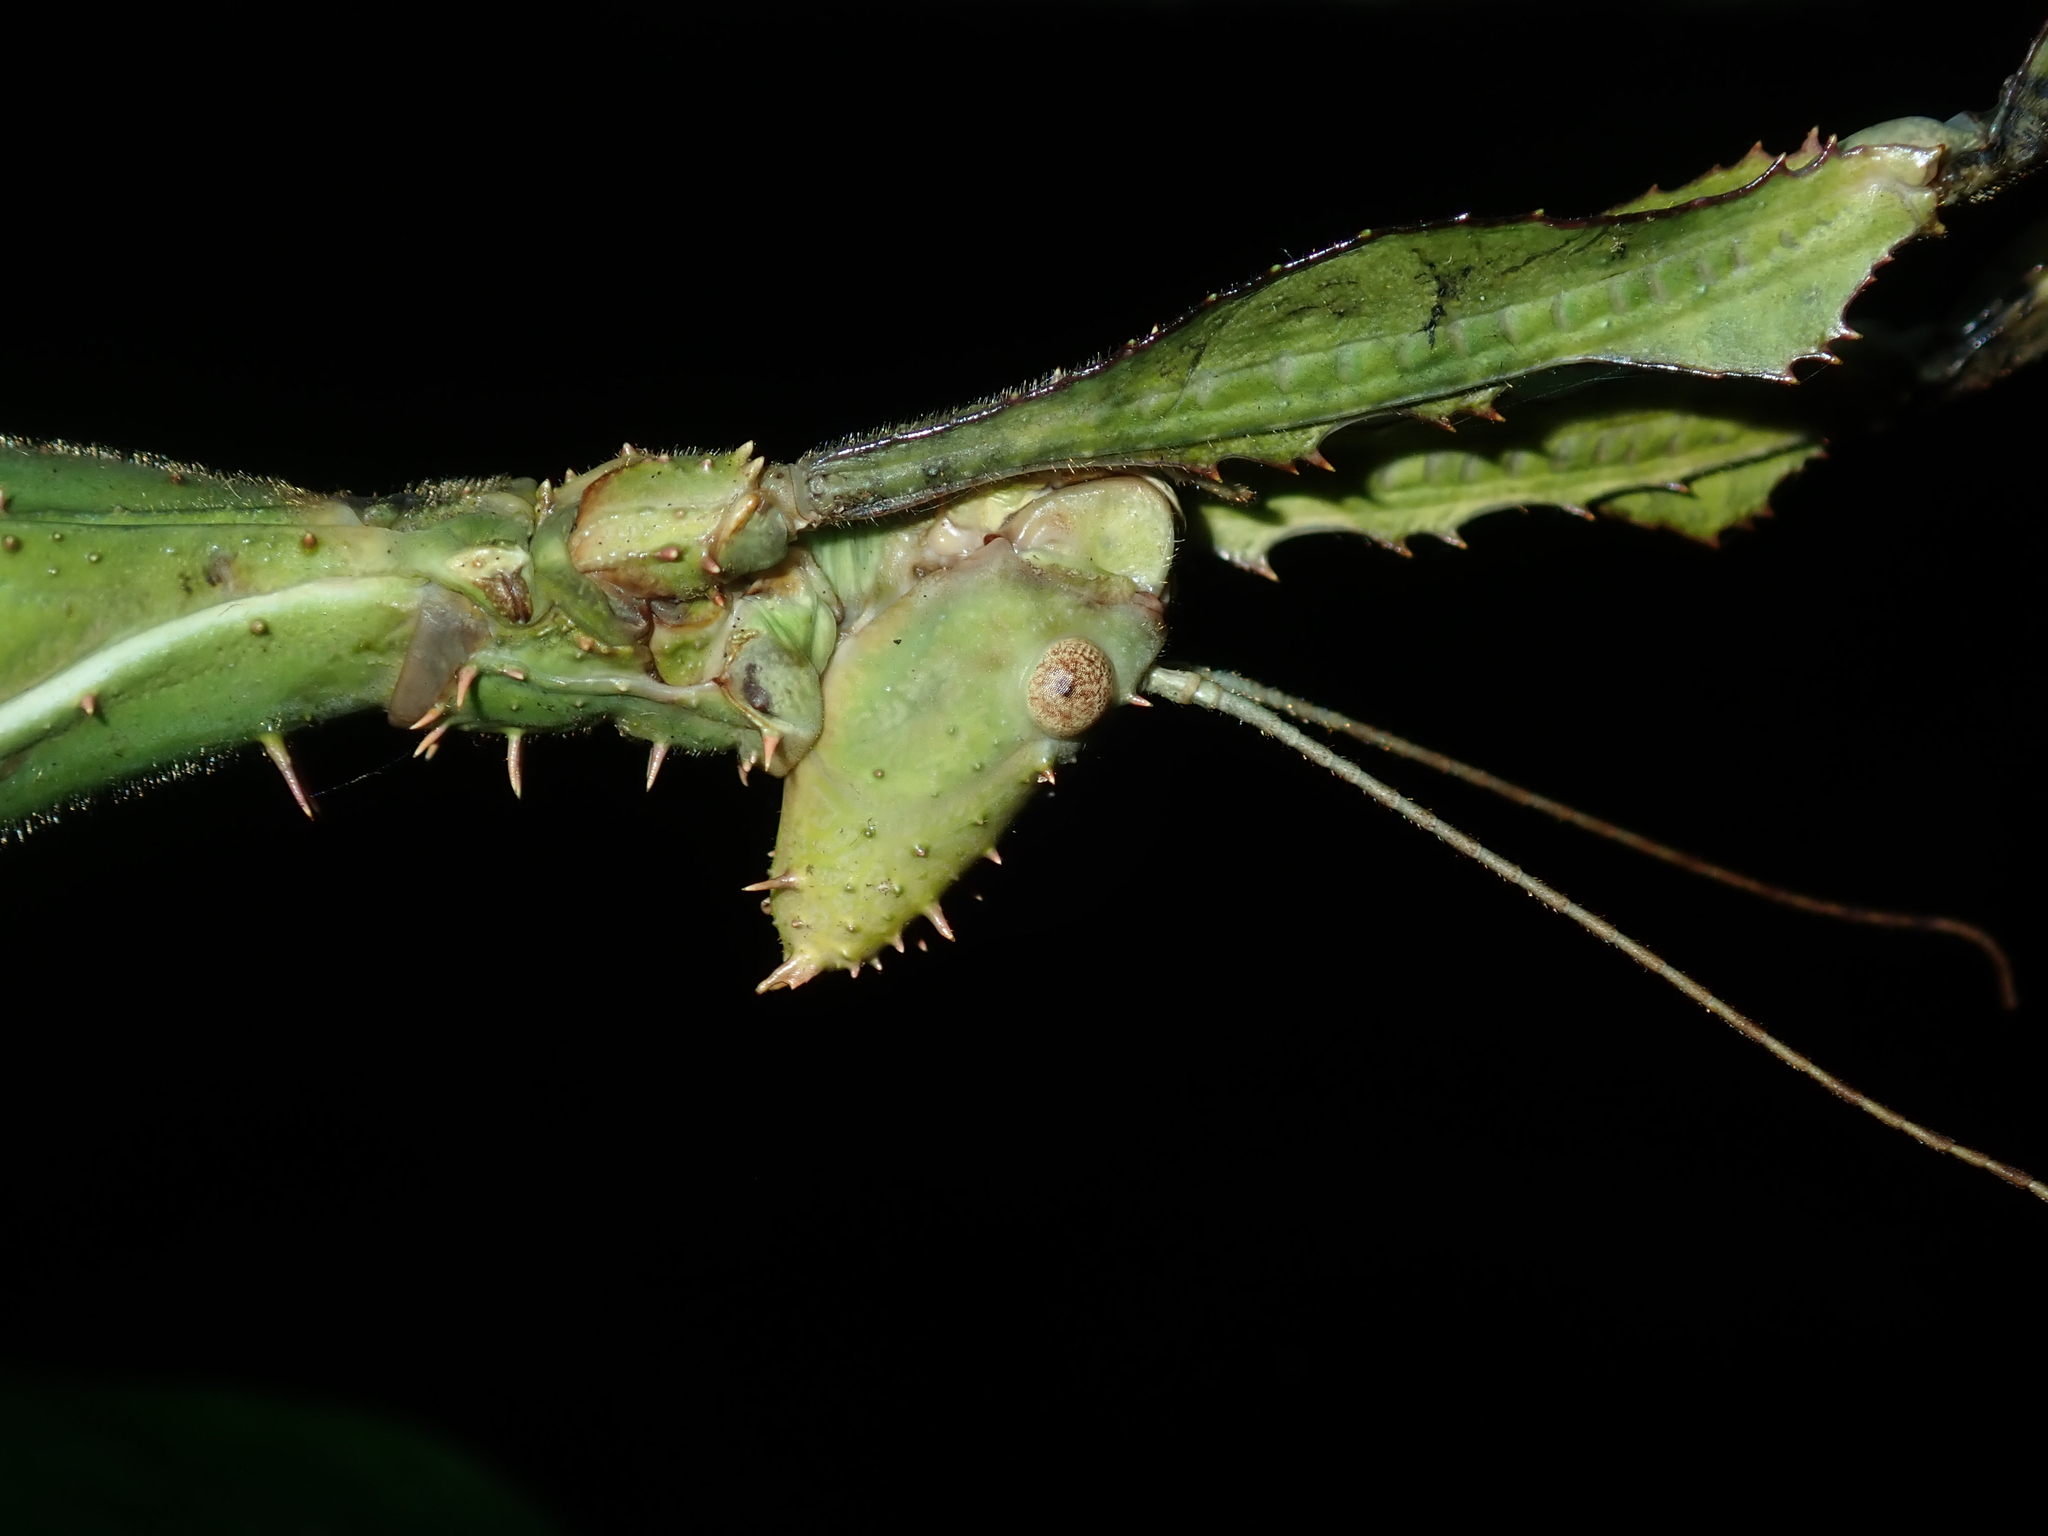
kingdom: Animalia
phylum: Arthropoda
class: Insecta
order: Phasmida
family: Phasmatidae
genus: Extatosoma
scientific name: Extatosoma tiaratum
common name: Macleay's spectre
